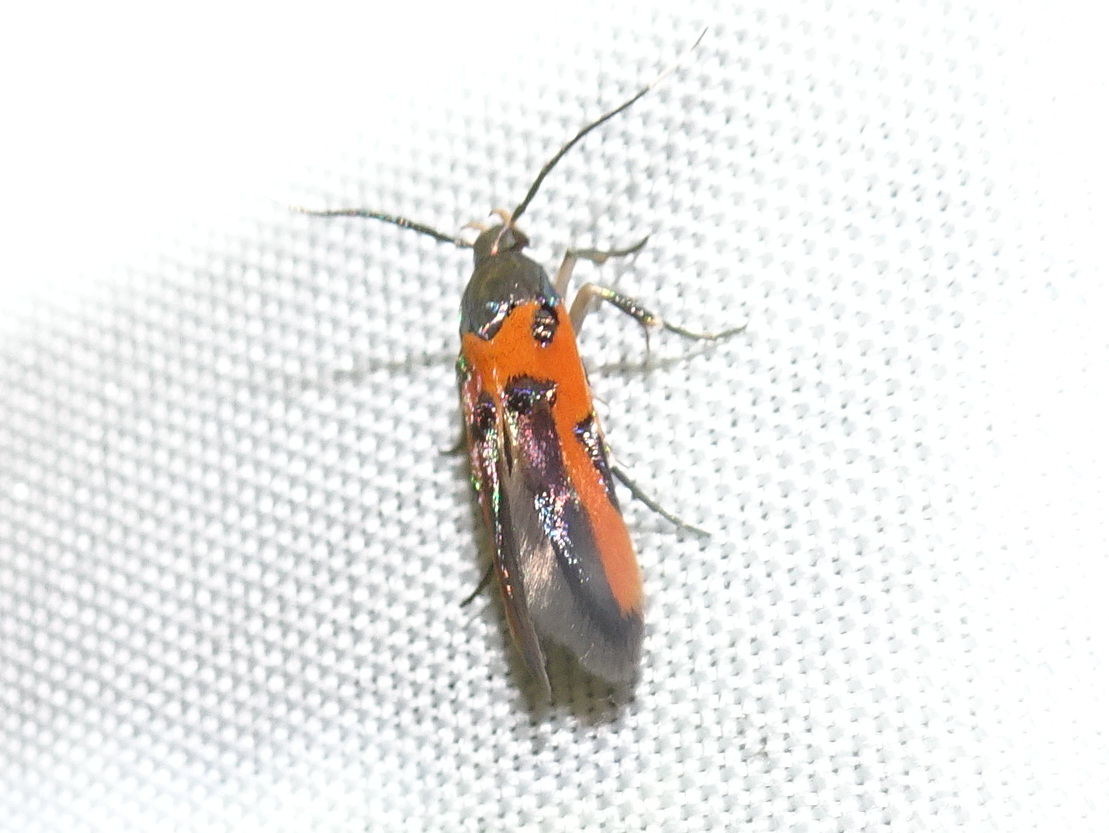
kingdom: Animalia
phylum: Arthropoda
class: Insecta
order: Lepidoptera
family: Cosmopterigidae
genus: Euclemensia
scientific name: Euclemensia bassettella
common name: Kermes scale moth
